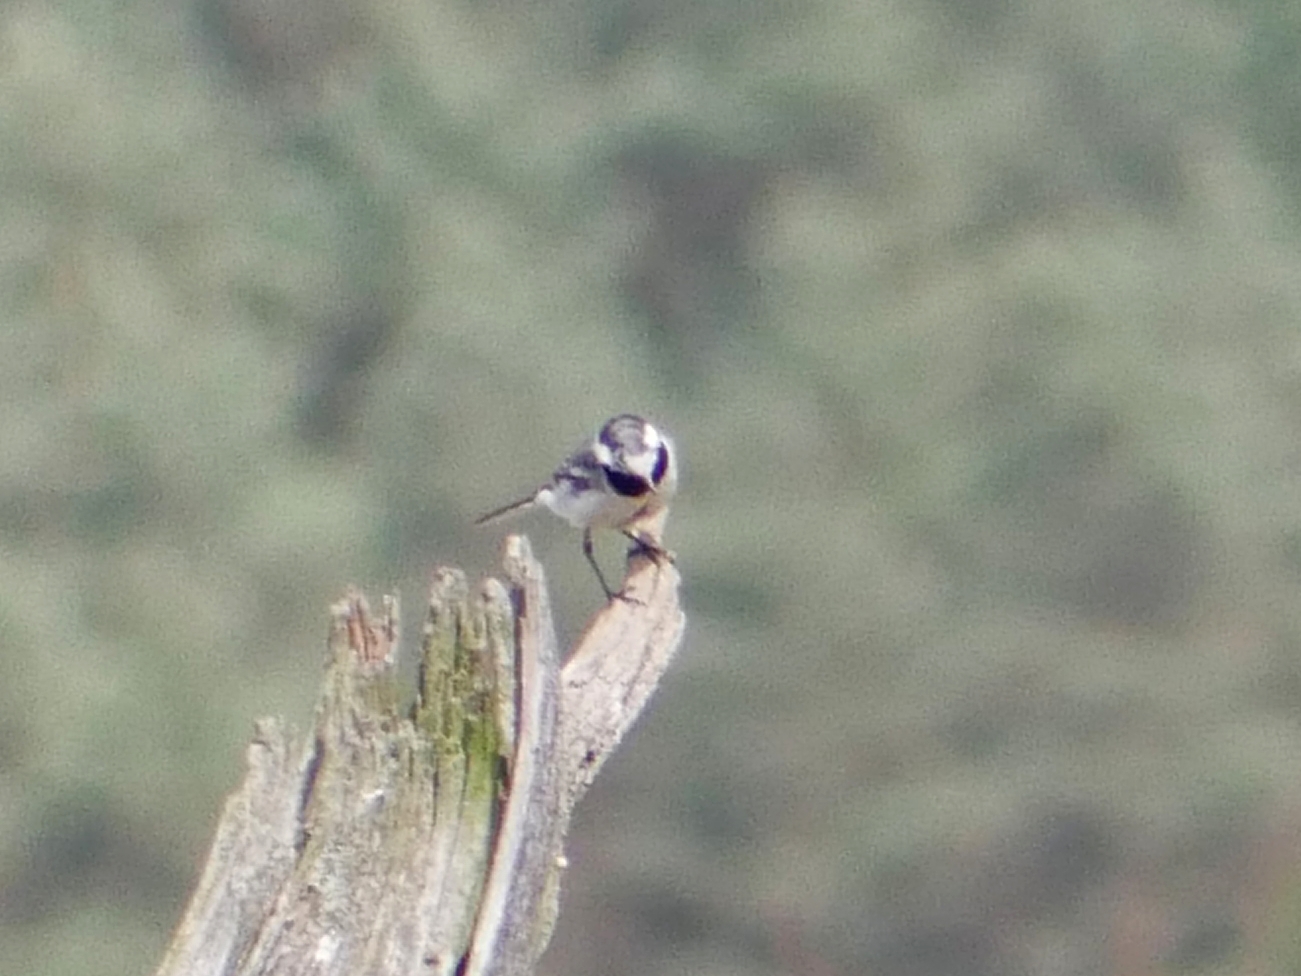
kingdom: Animalia
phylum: Chordata
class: Aves
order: Passeriformes
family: Motacillidae
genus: Motacilla
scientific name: Motacilla alba
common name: White wagtail
